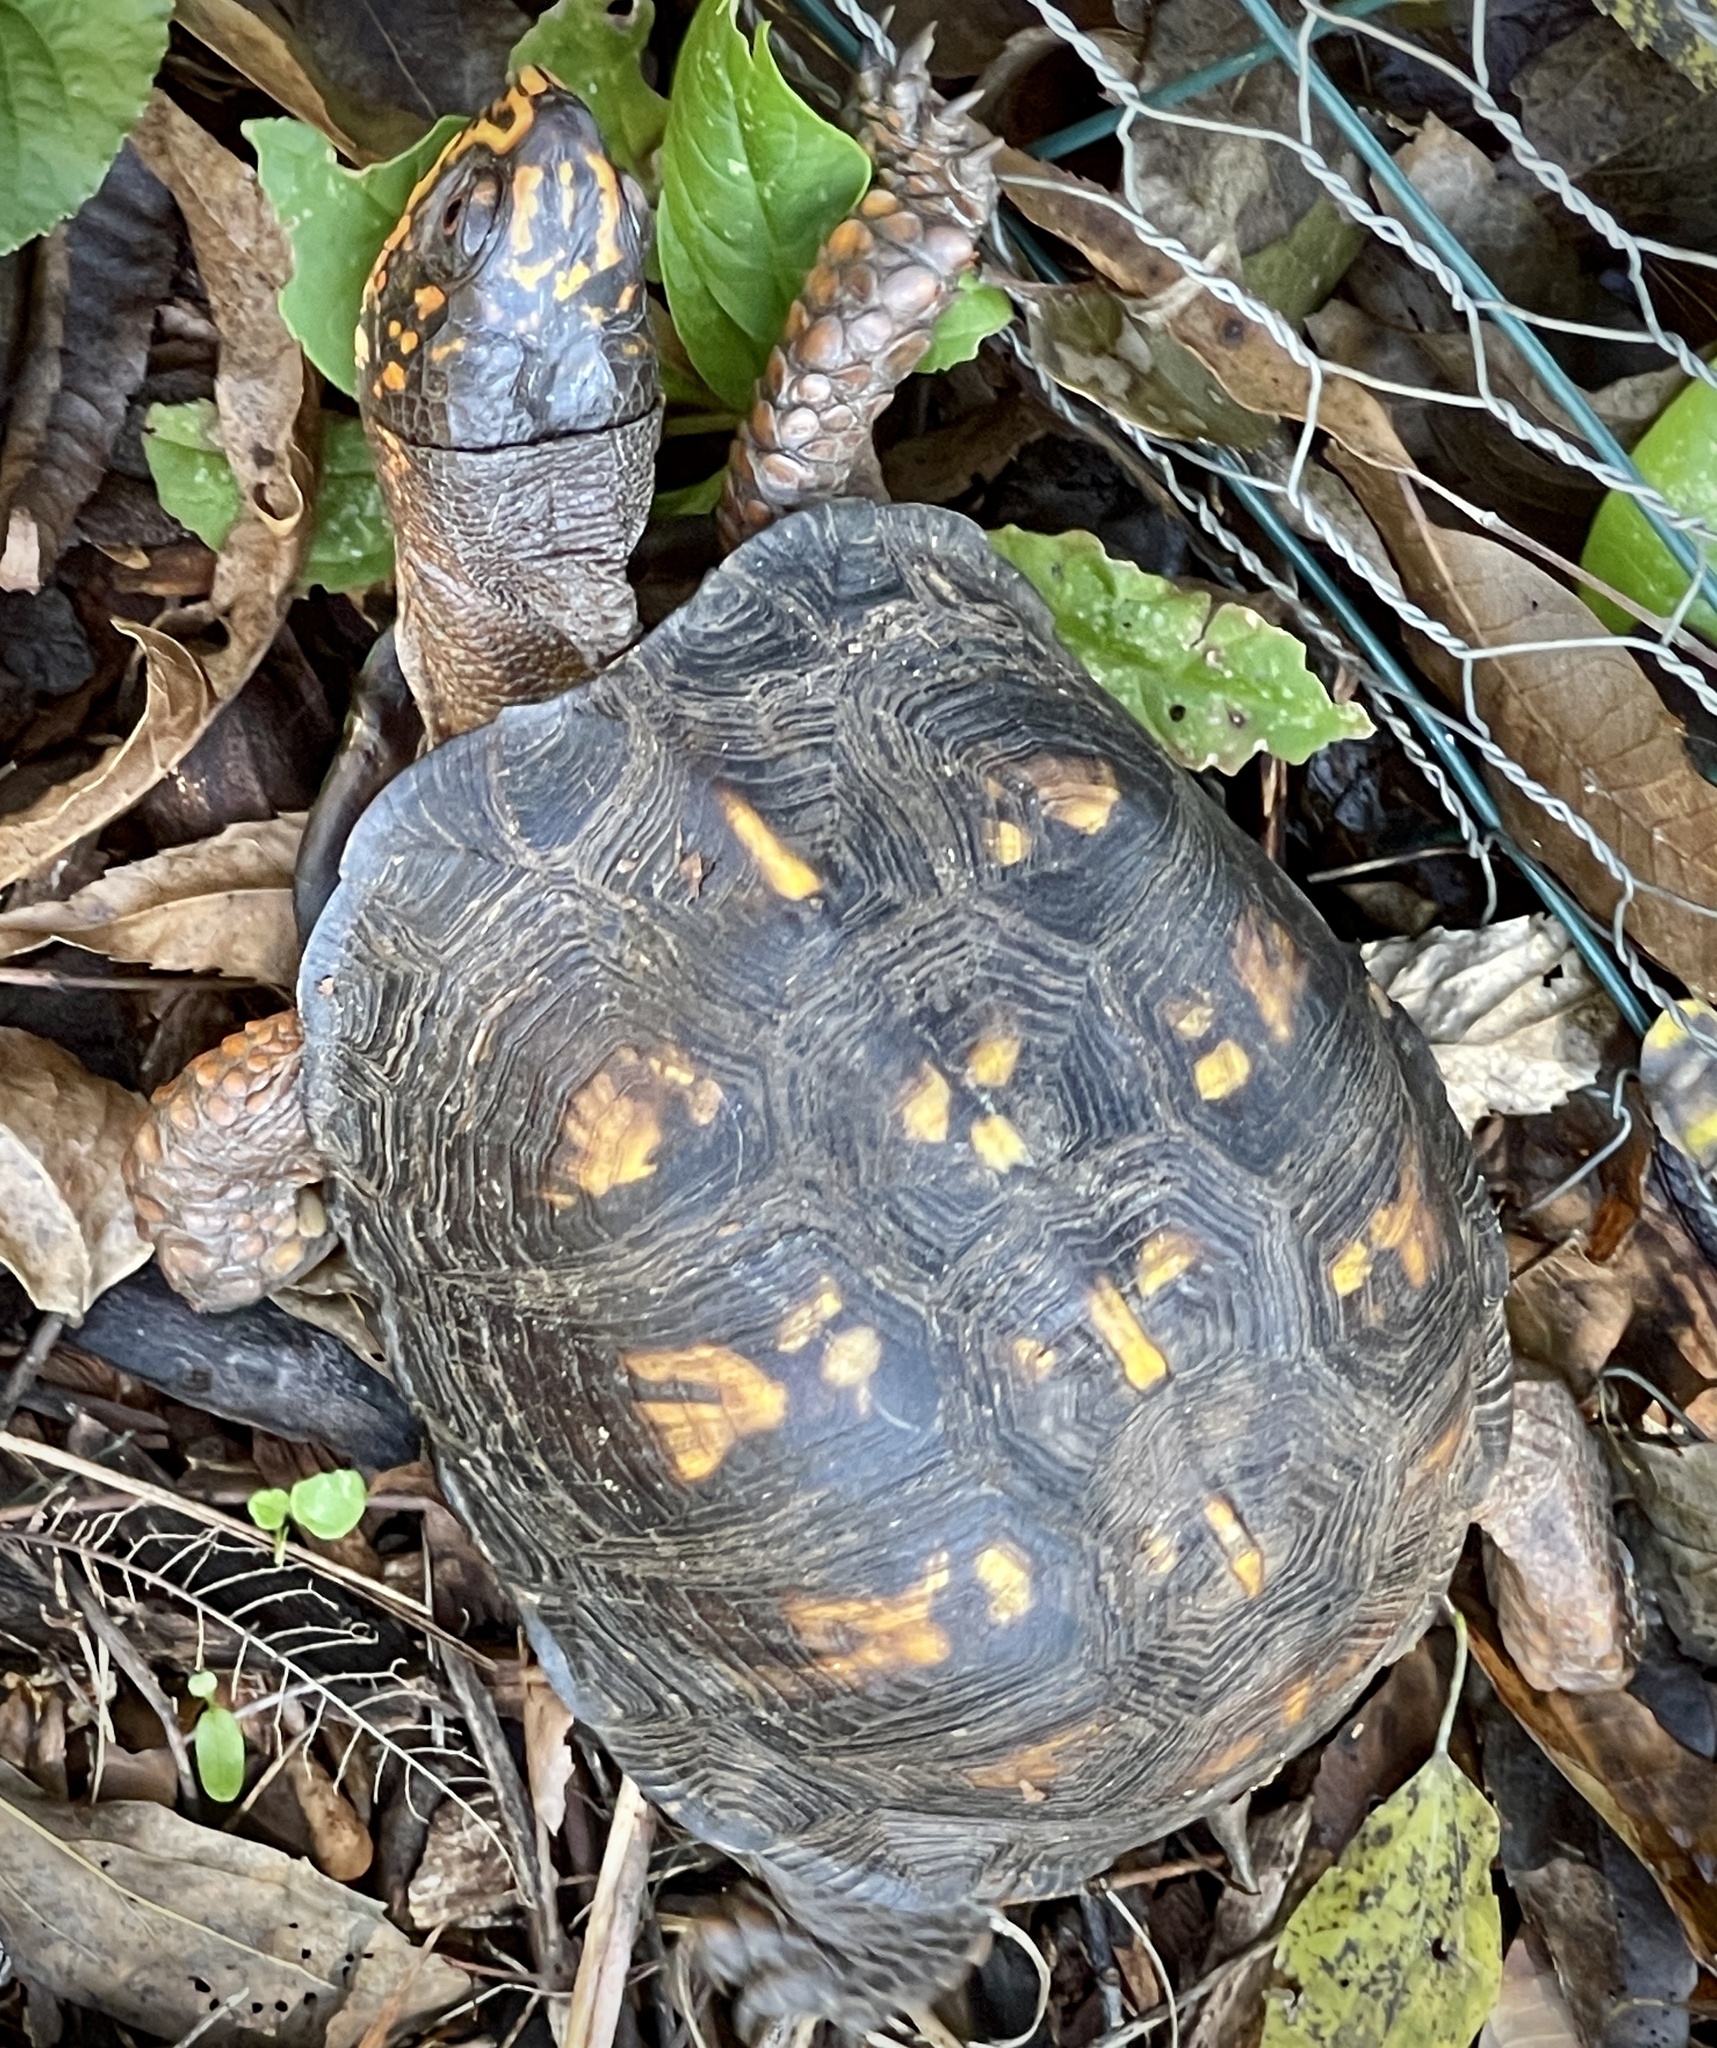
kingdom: Animalia
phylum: Chordata
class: Testudines
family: Emydidae
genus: Terrapene
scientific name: Terrapene carolina
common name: Common box turtle
